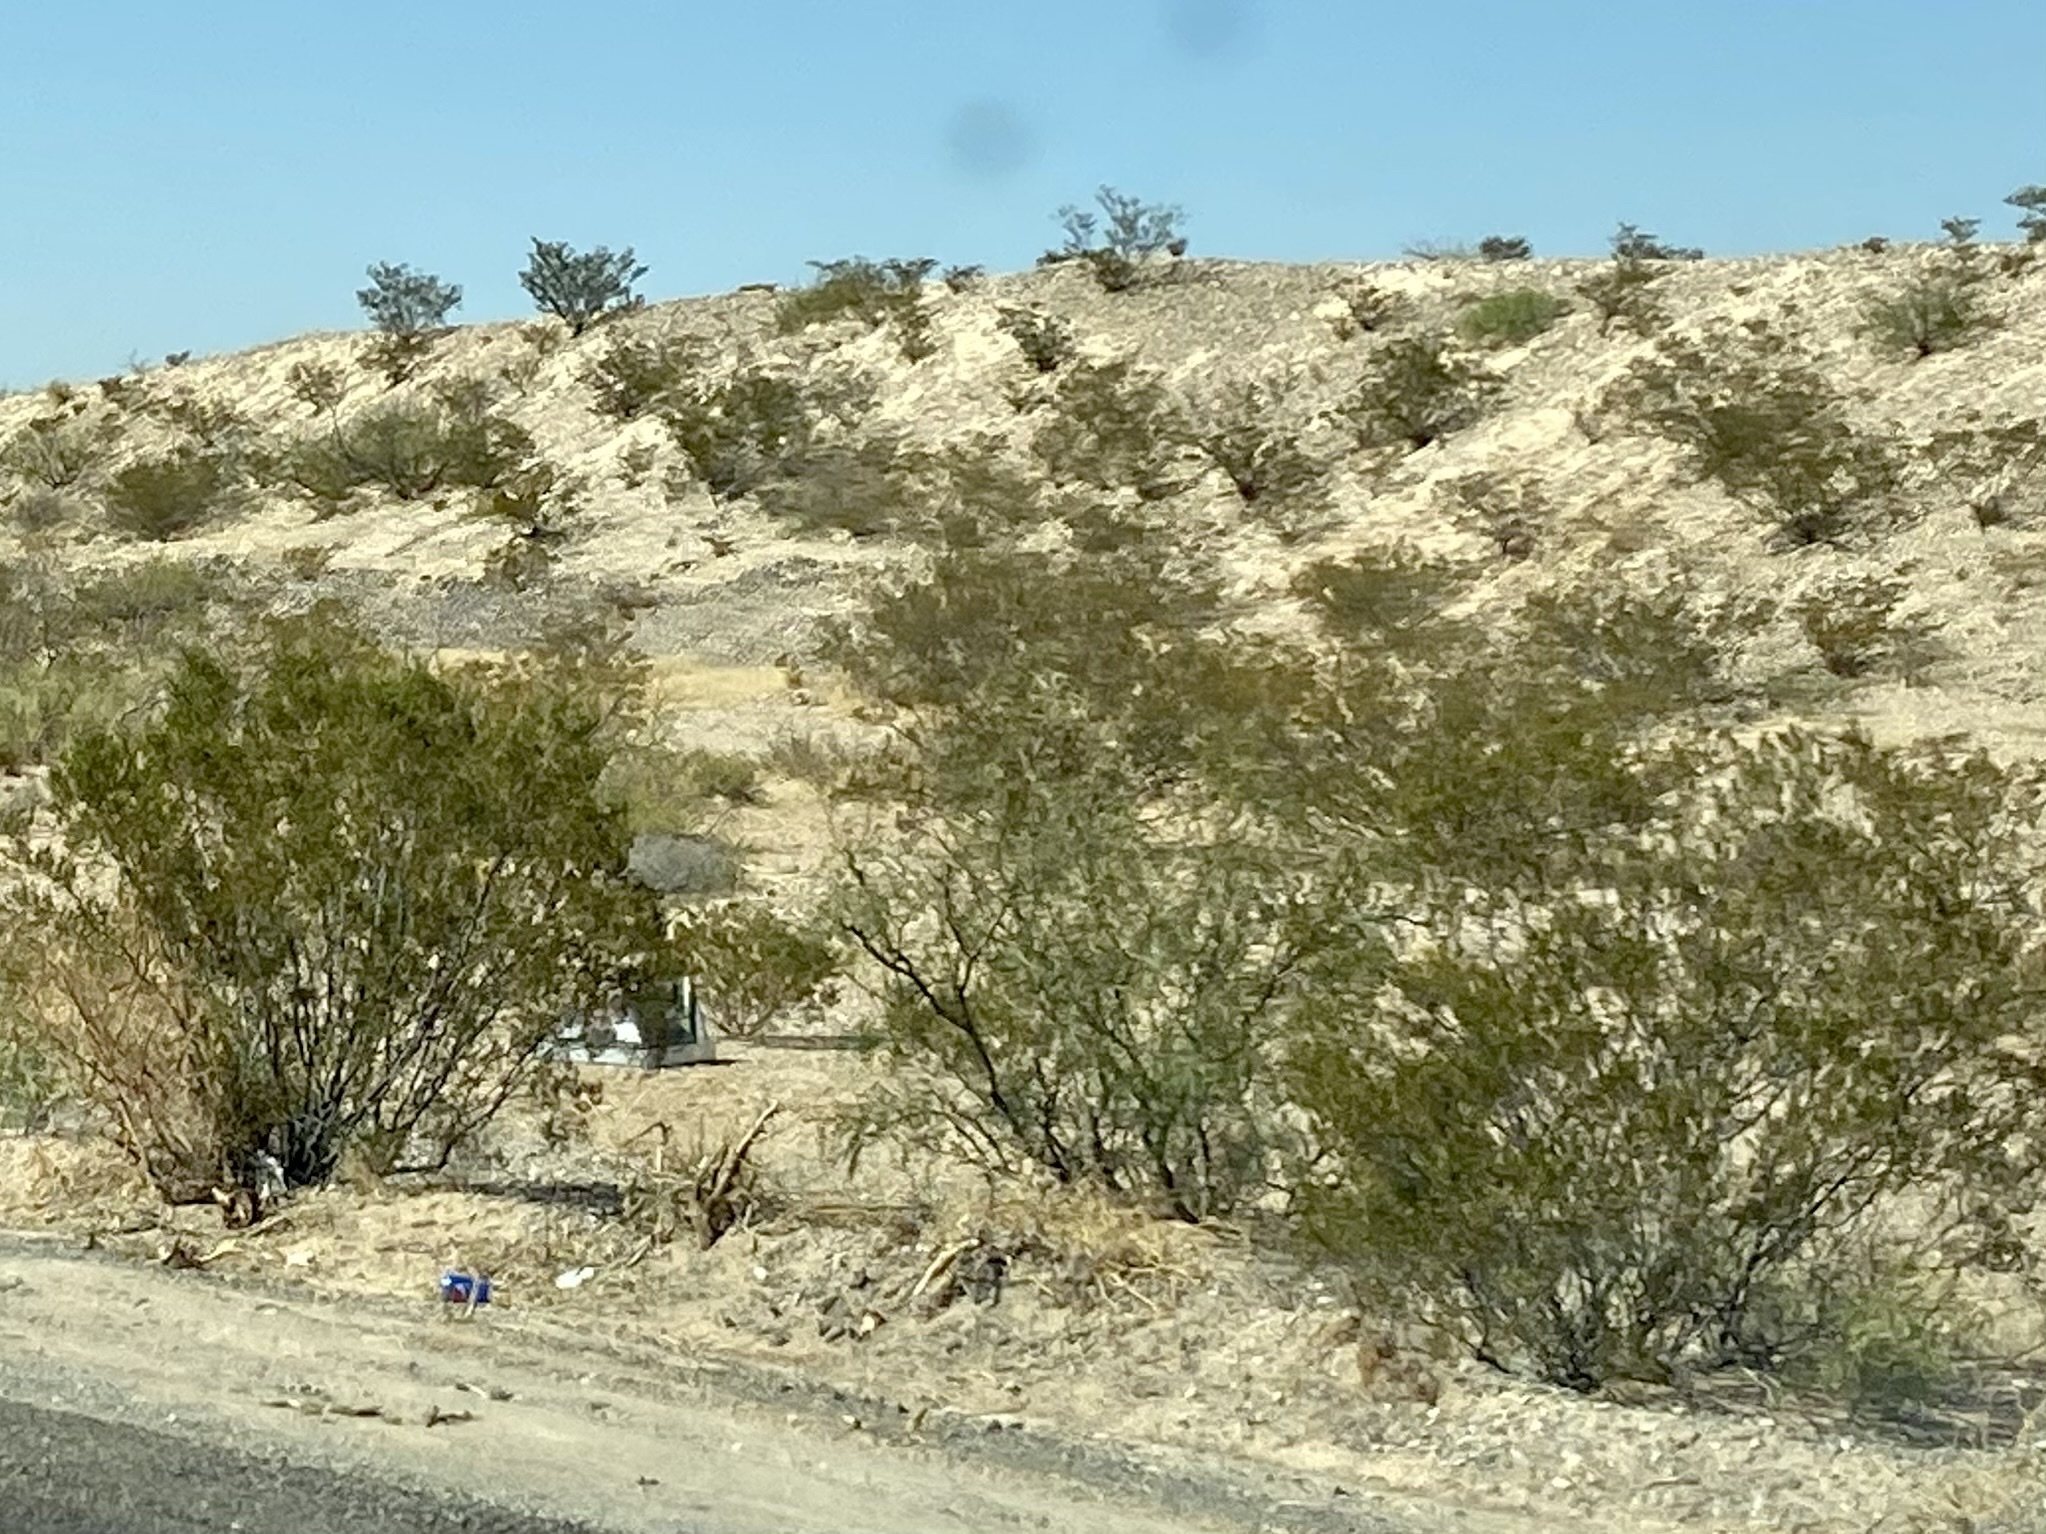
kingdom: Plantae
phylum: Tracheophyta
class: Magnoliopsida
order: Zygophyllales
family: Zygophyllaceae
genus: Larrea
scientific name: Larrea tridentata
